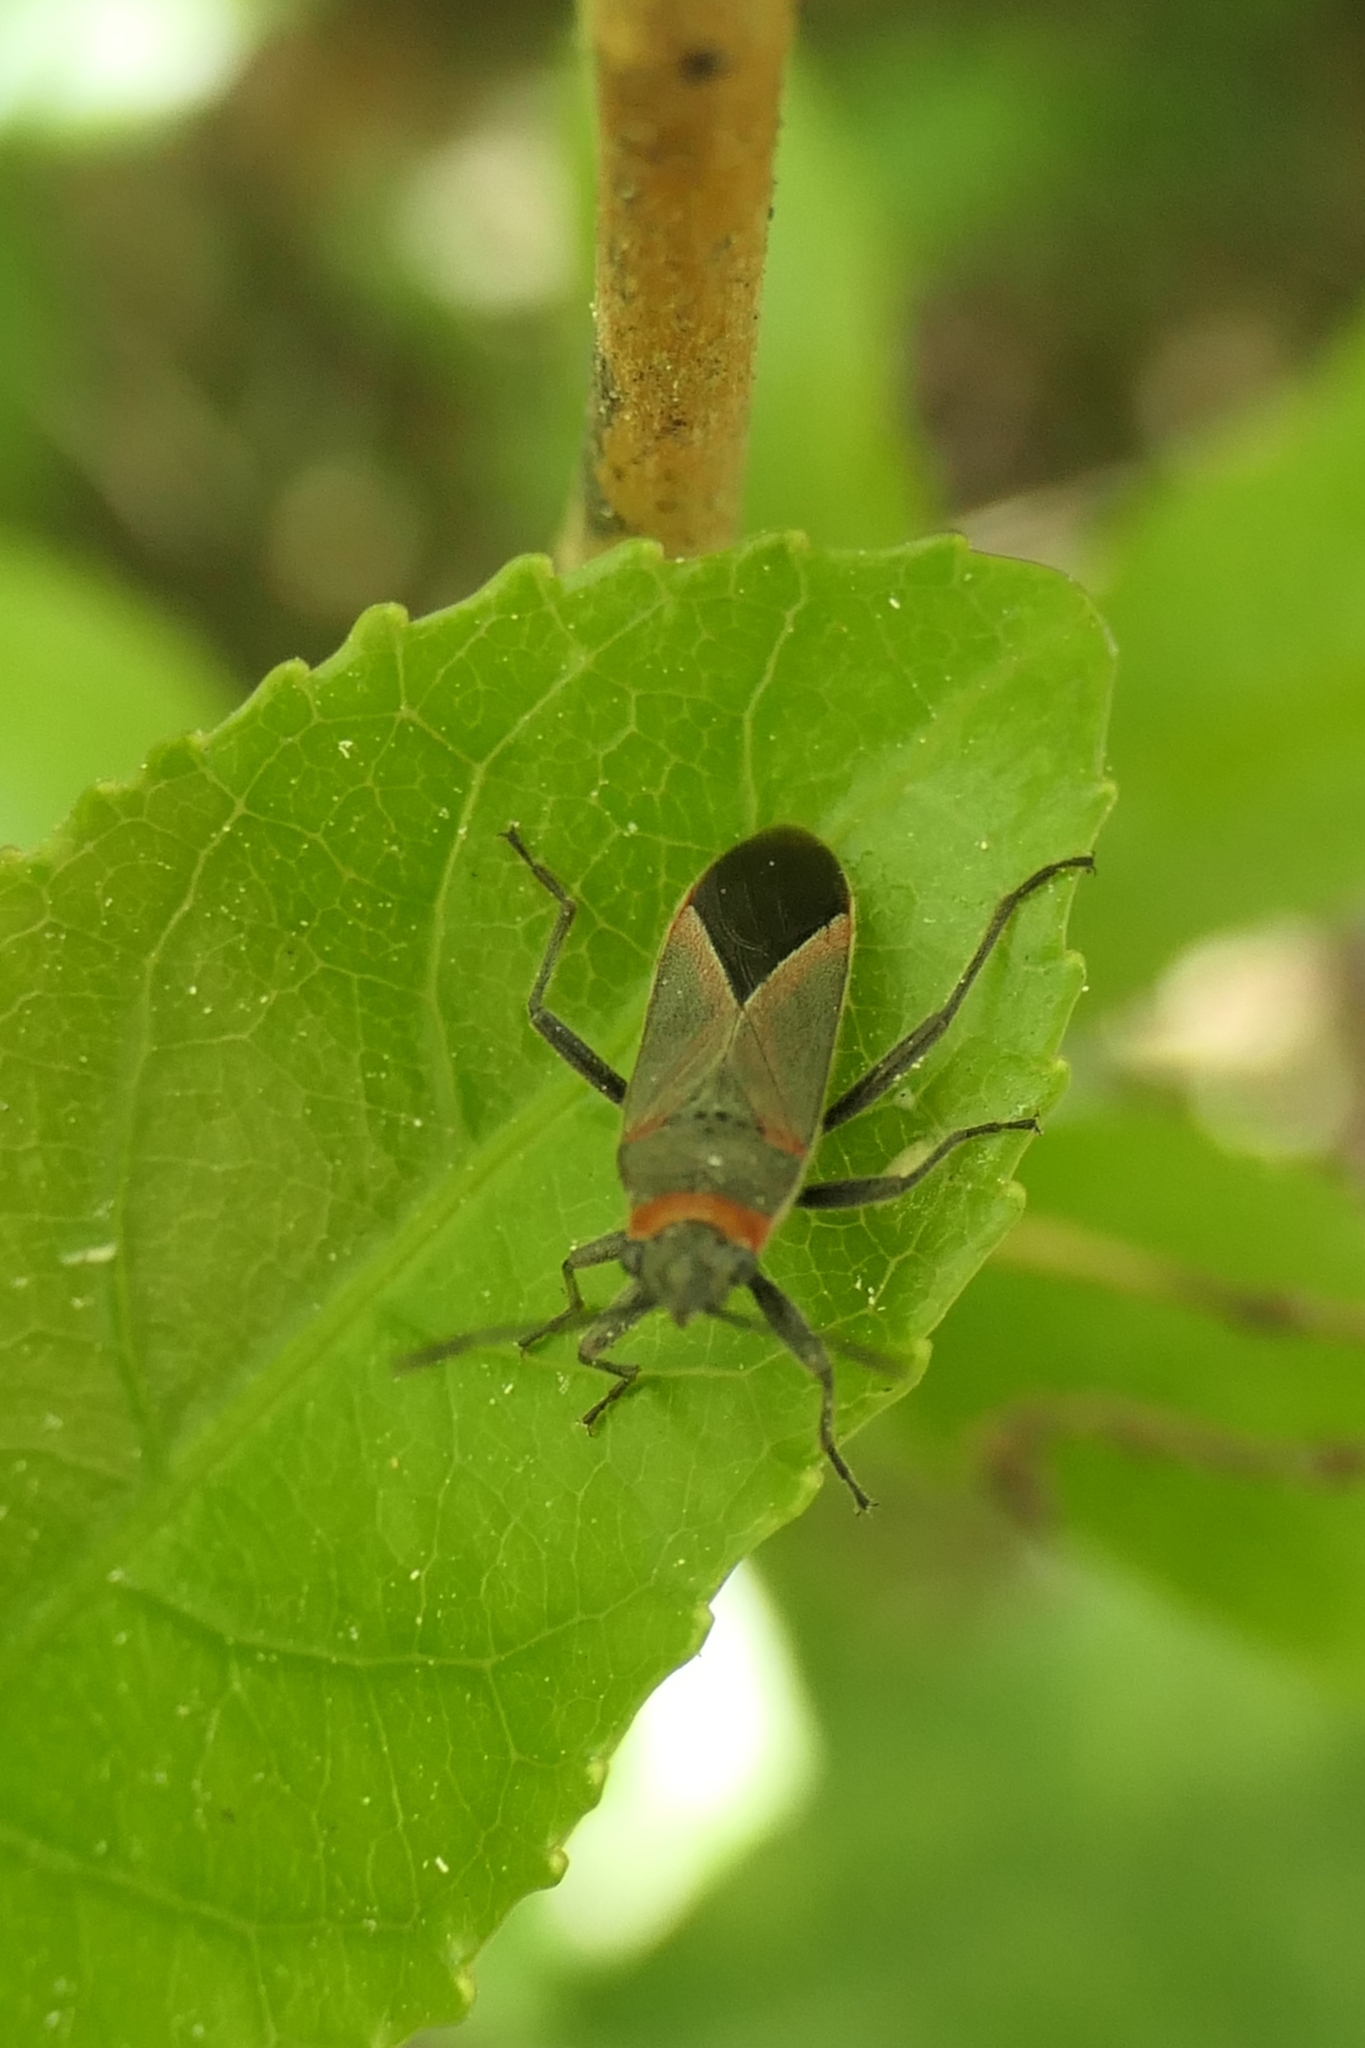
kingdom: Animalia
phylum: Arthropoda
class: Insecta
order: Hemiptera
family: Lygaeidae
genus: Arocatus
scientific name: Arocatus rusticus
